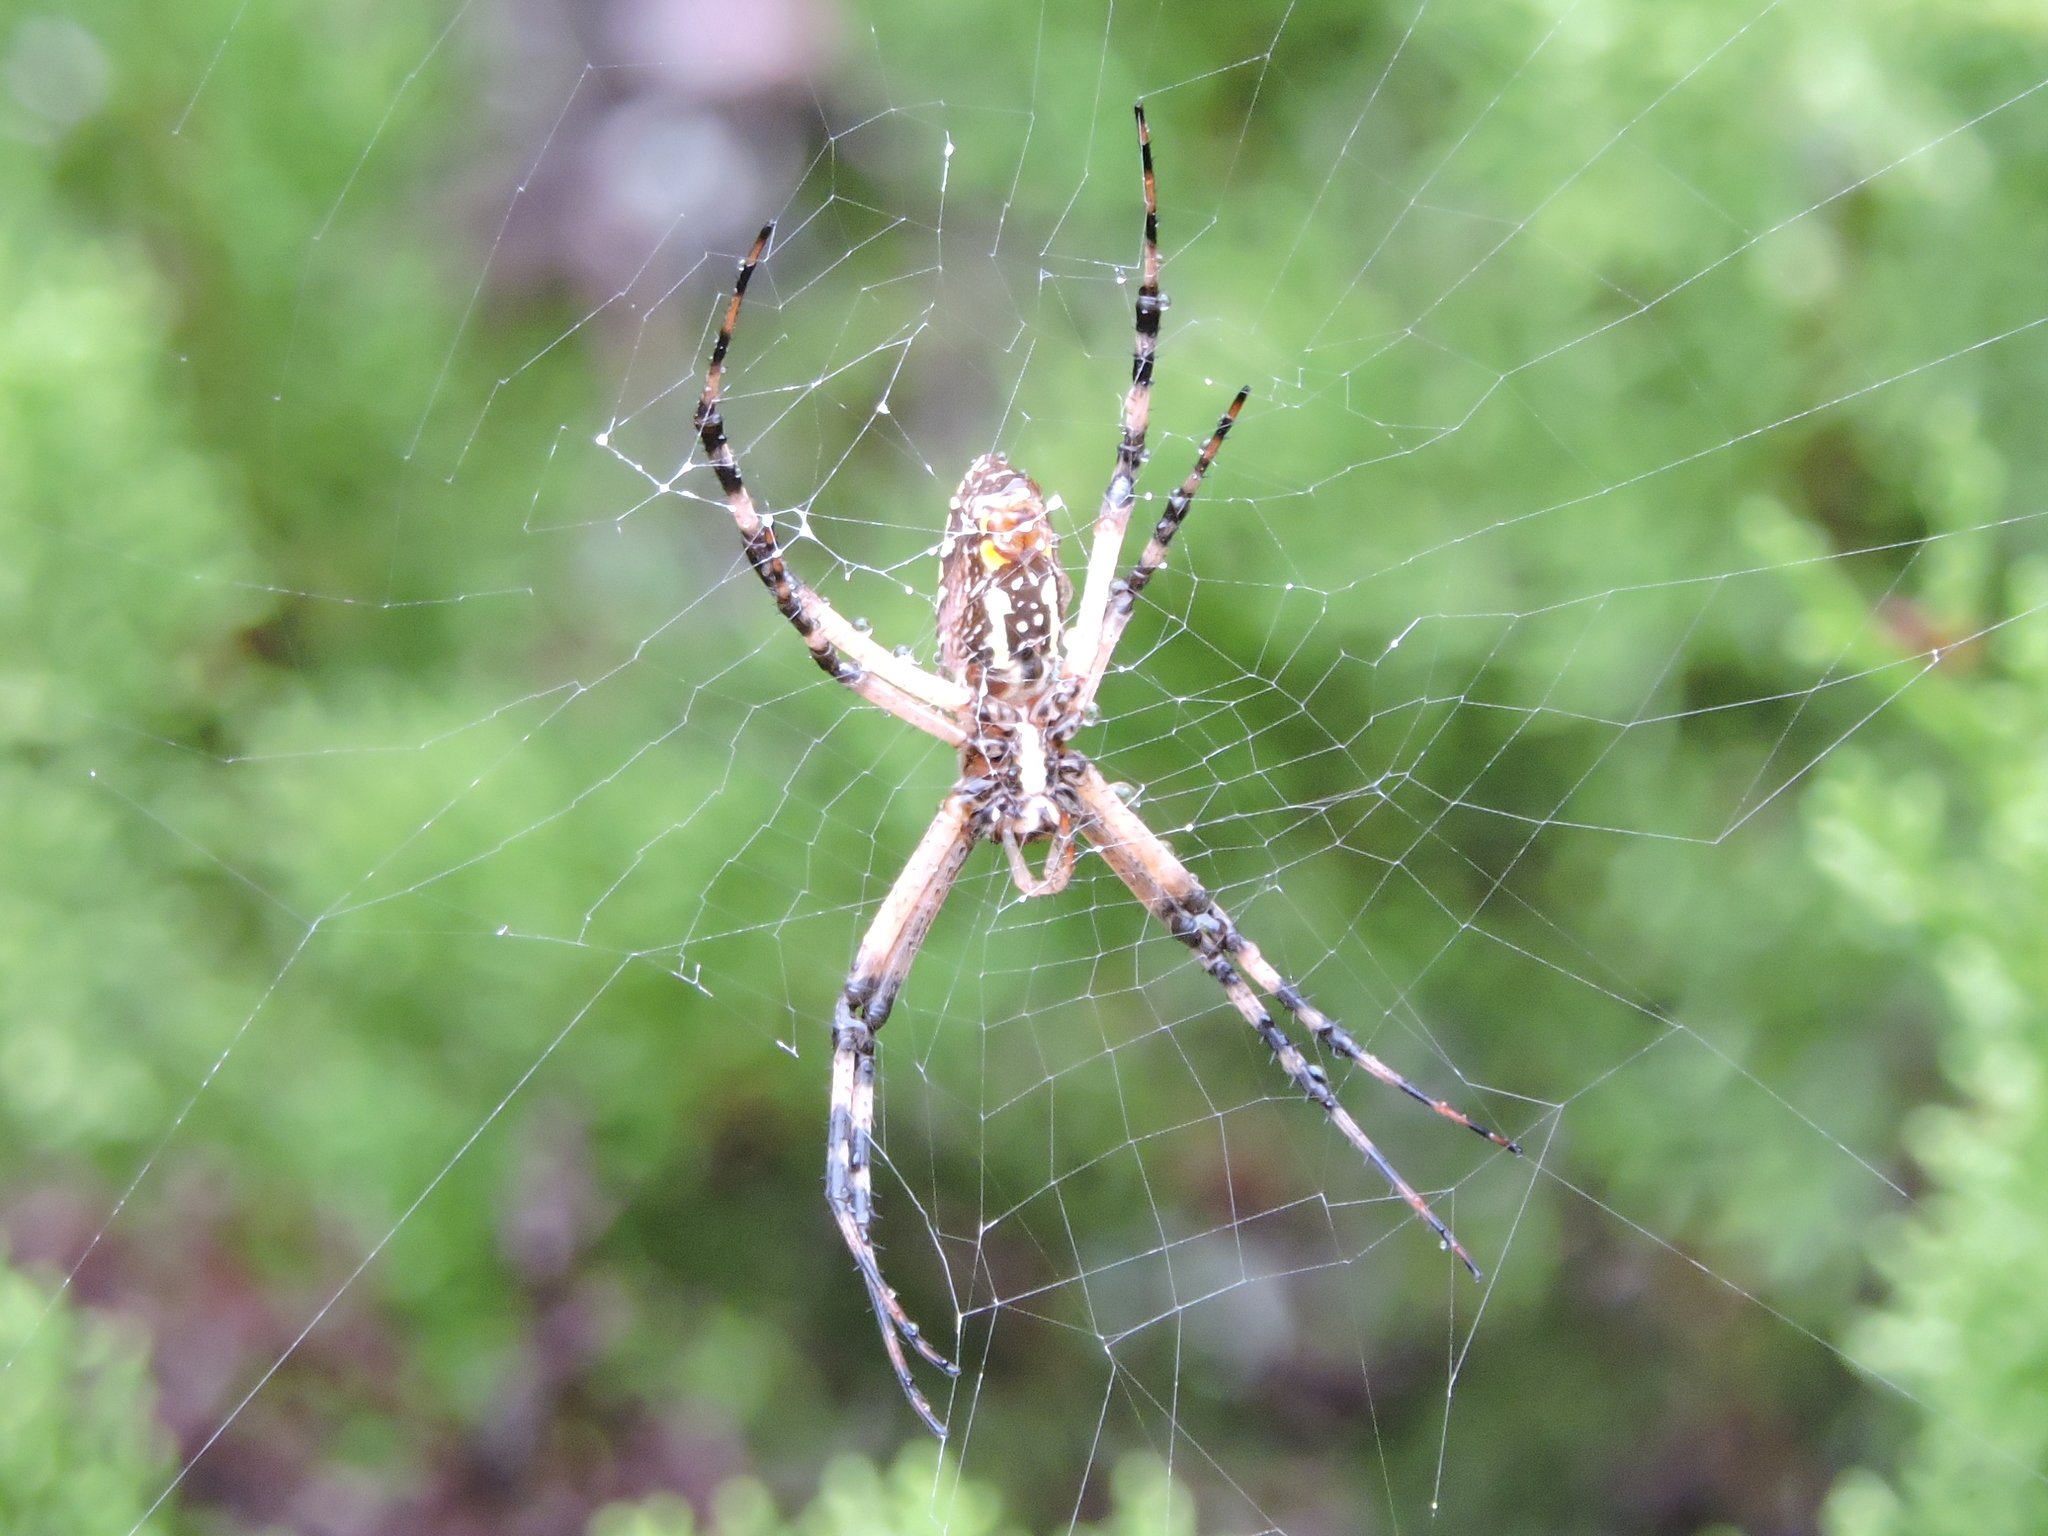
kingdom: Animalia
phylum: Arthropoda
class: Arachnida
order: Araneae
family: Araneidae
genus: Argiope
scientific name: Argiope aurantia
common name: Orb weavers
